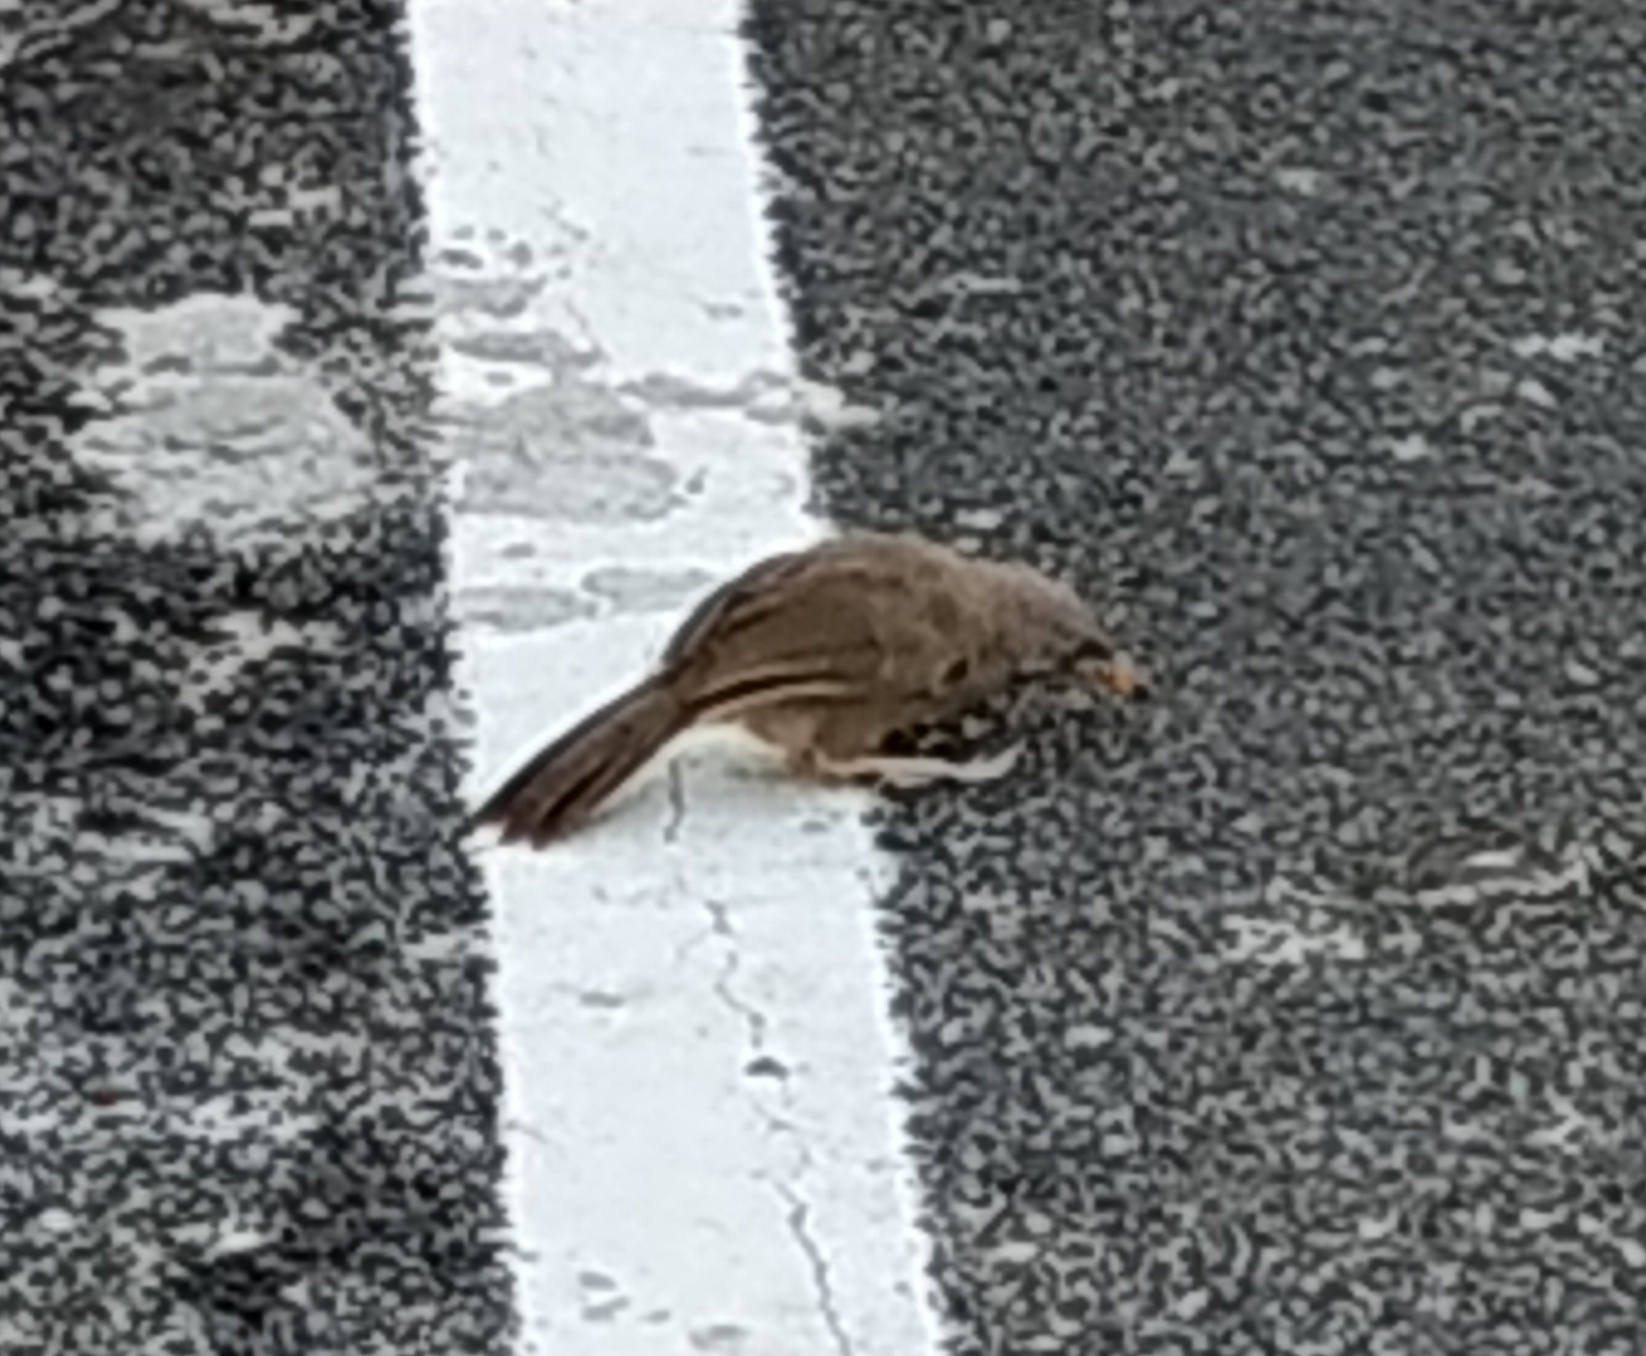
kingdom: Animalia
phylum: Chordata
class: Aves
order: Passeriformes
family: Leiothrichidae
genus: Turdoides
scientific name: Turdoides striata
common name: Jungle babbler
